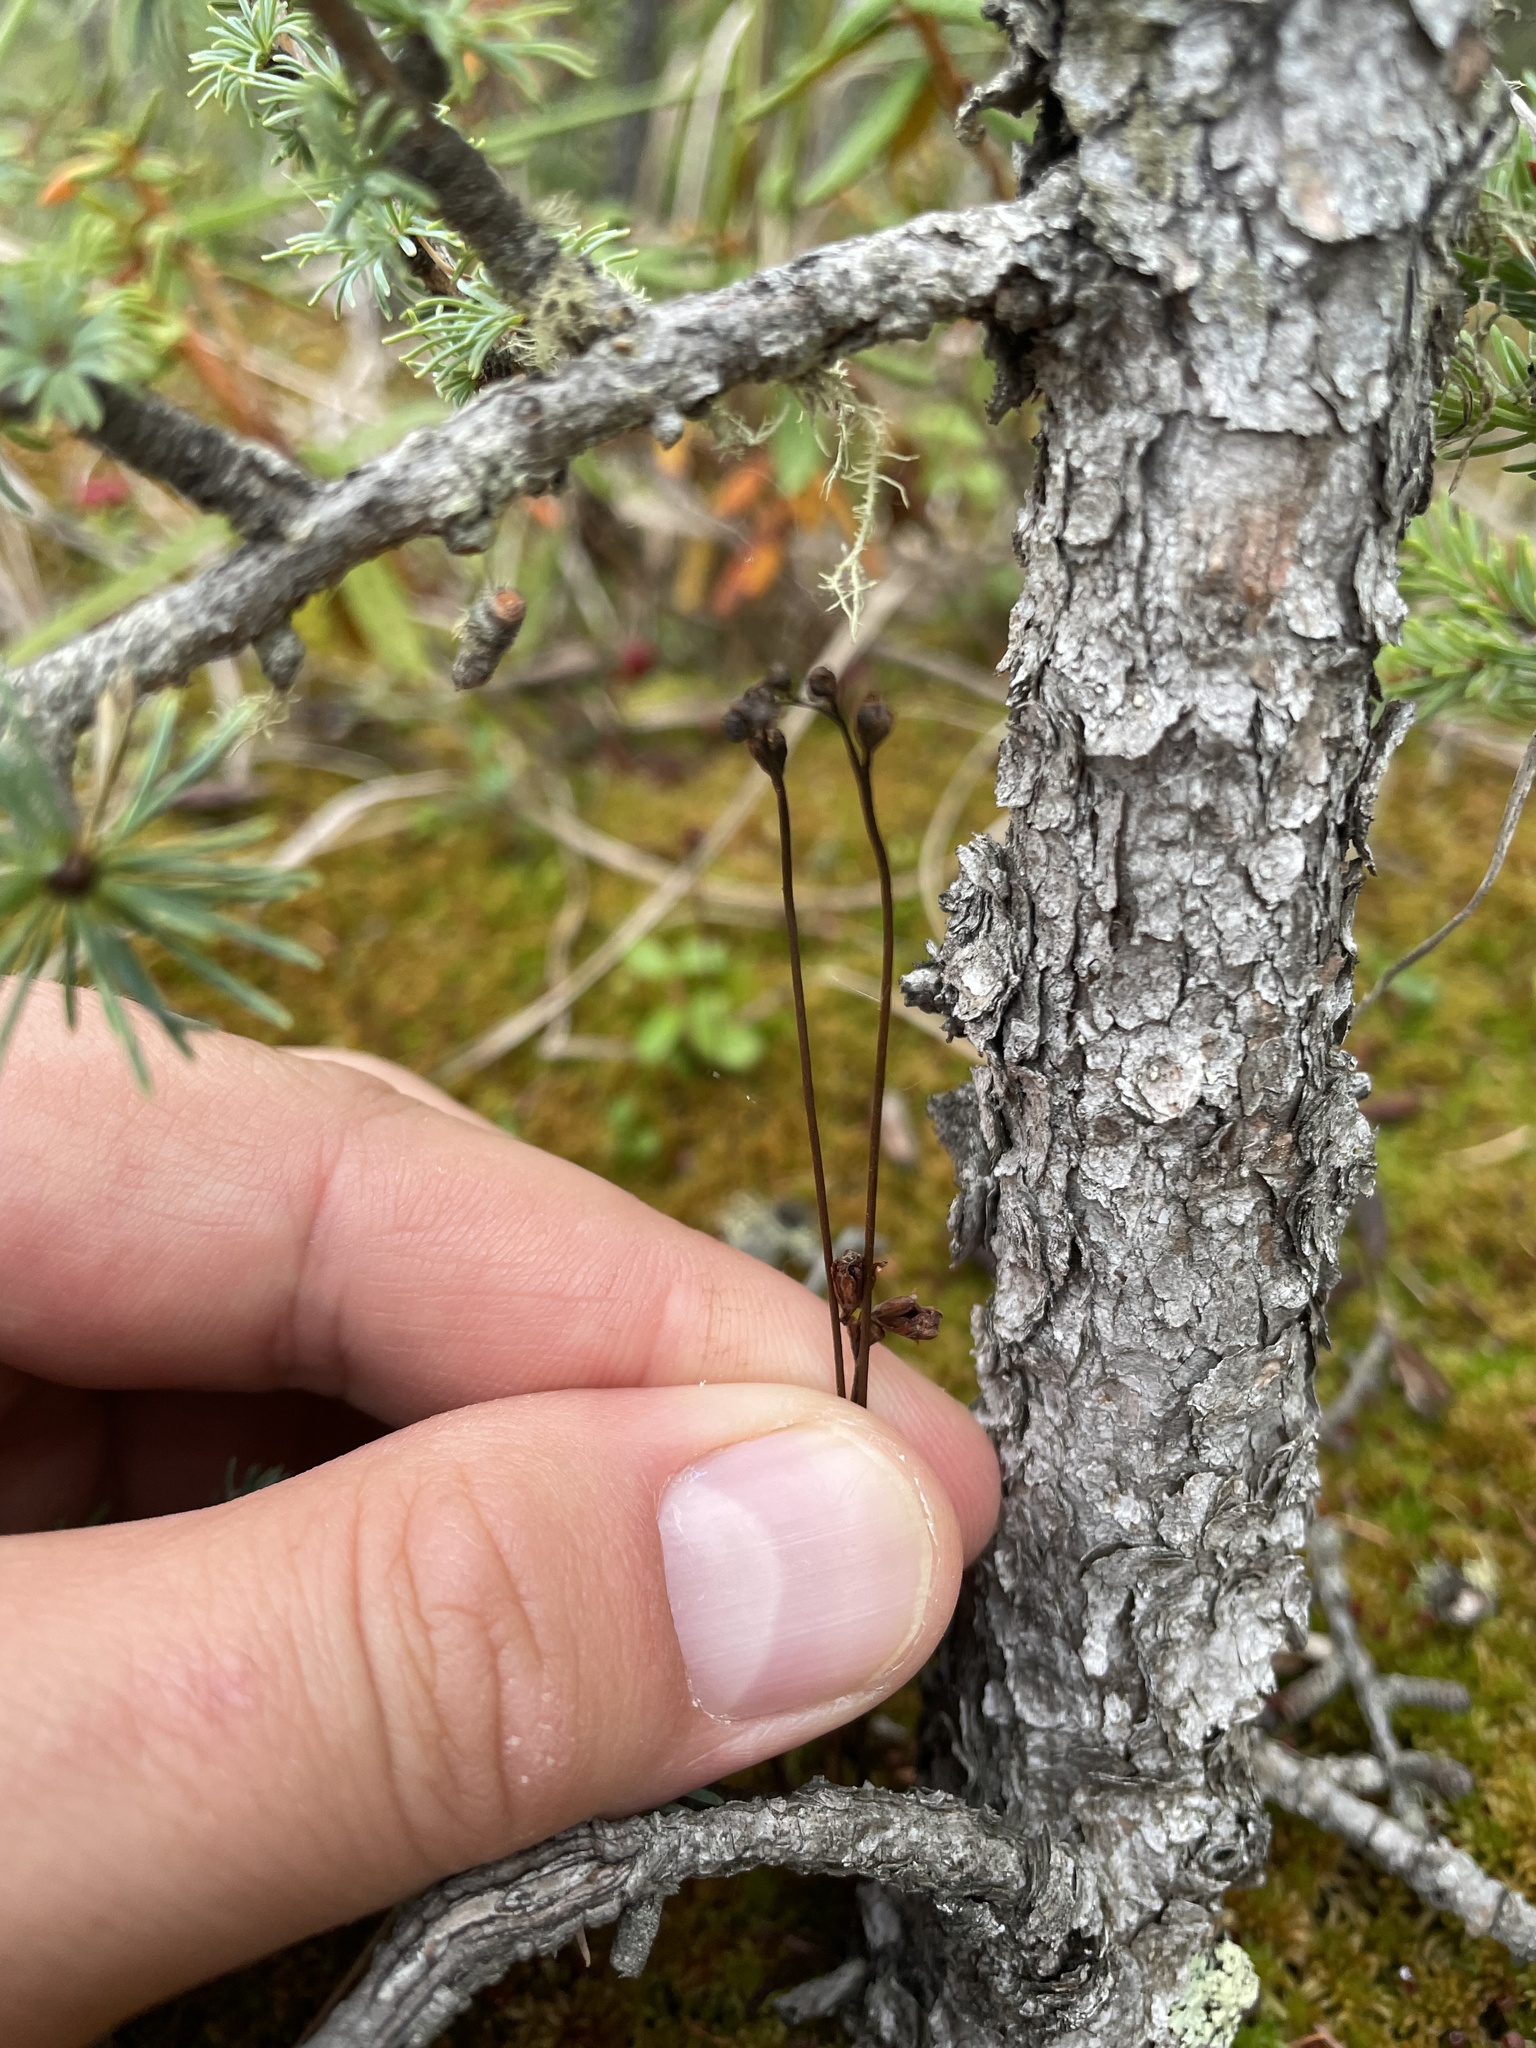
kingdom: Plantae
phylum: Tracheophyta
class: Magnoliopsida
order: Caryophyllales
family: Droseraceae
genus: Drosera
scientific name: Drosera rotundifolia
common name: Round-leaved sundew
